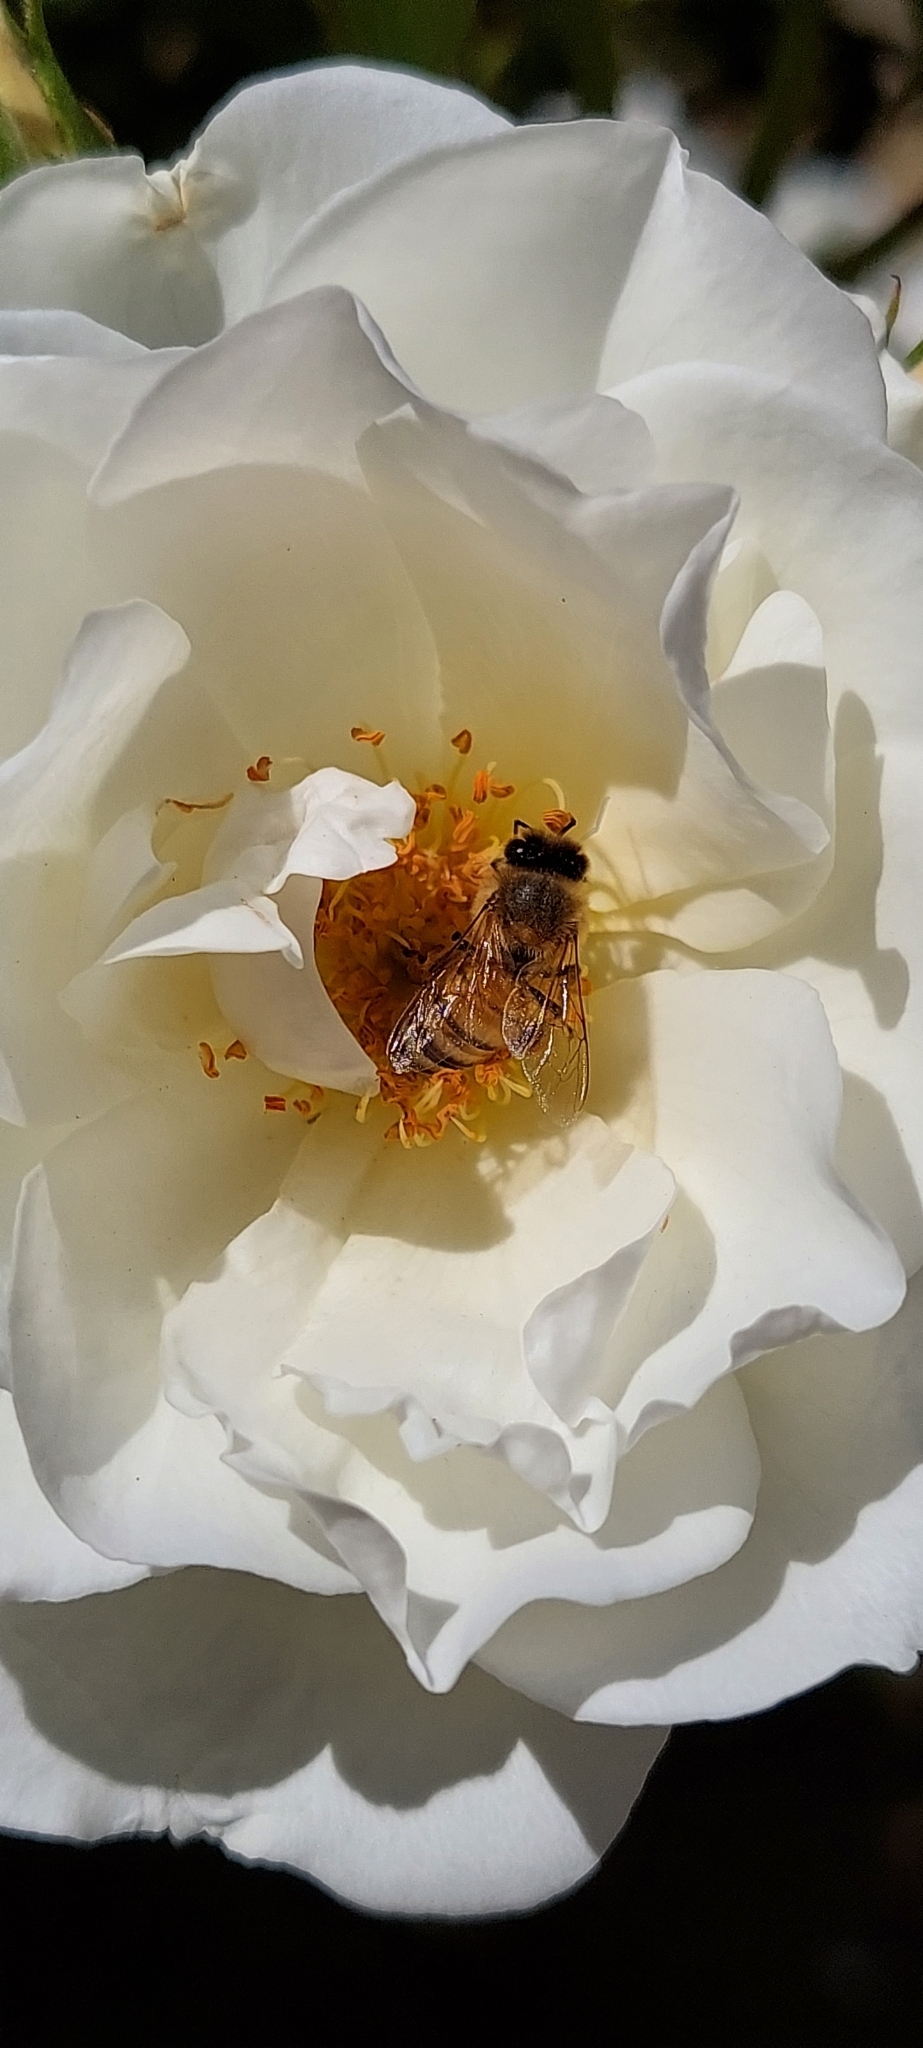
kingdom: Animalia
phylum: Arthropoda
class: Insecta
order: Hymenoptera
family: Apidae
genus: Apis
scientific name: Apis mellifera
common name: Honey bee
